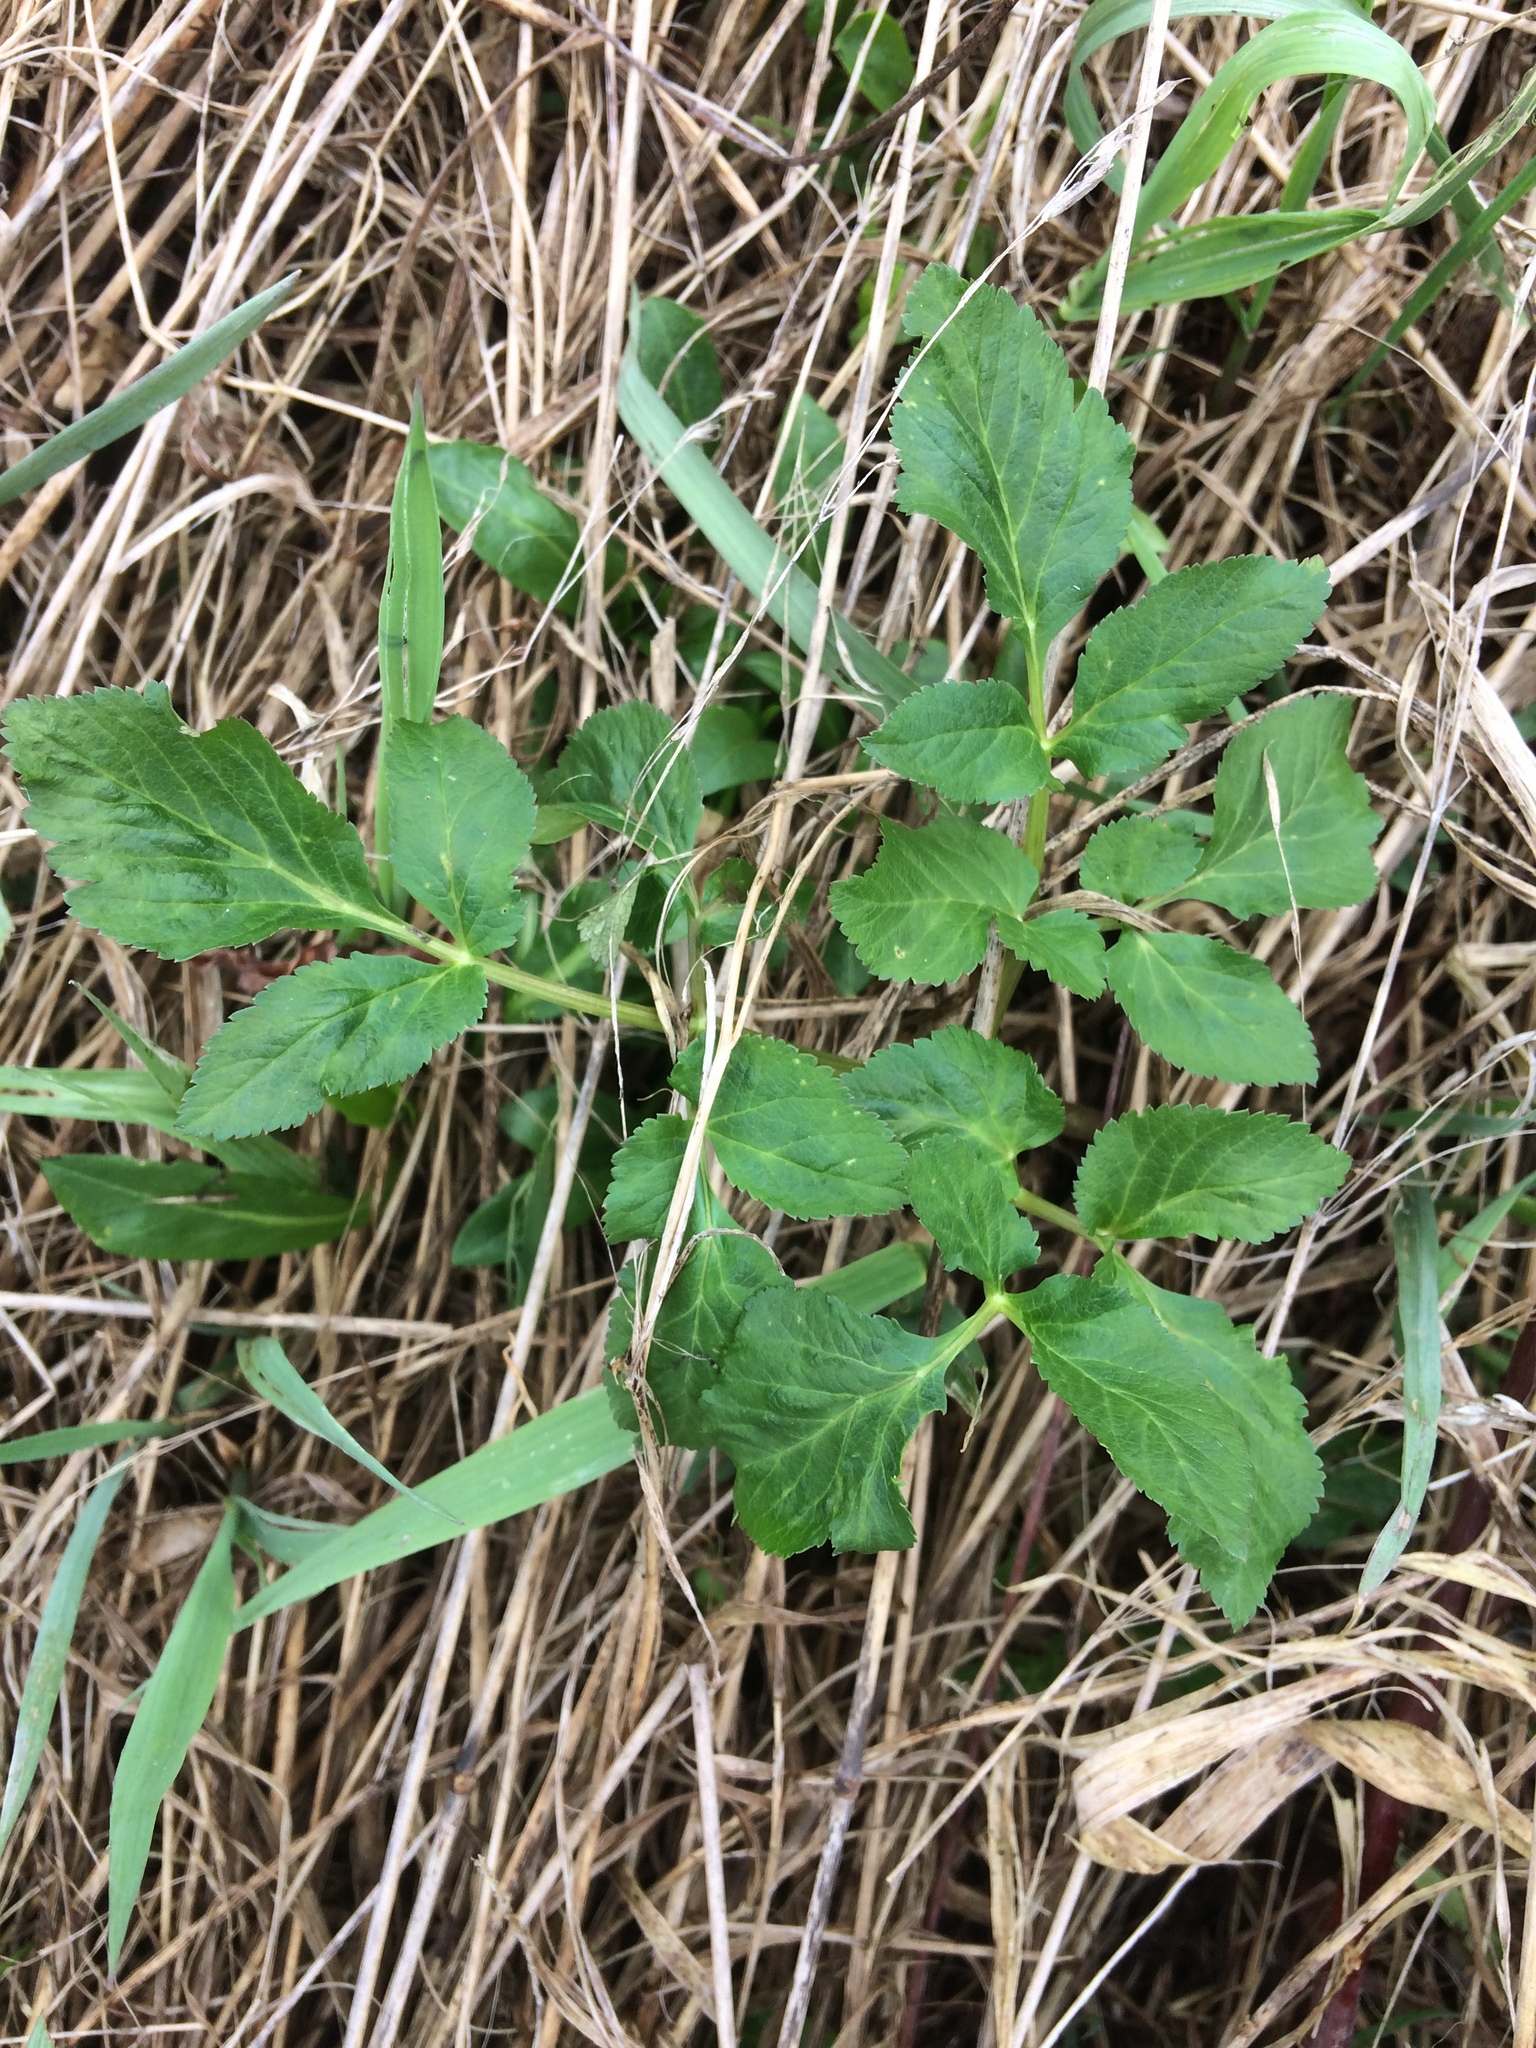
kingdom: Plantae
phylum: Tracheophyta
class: Magnoliopsida
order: Apiales
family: Apiaceae
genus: Aegopodium
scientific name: Aegopodium podagraria
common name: Ground-elder
